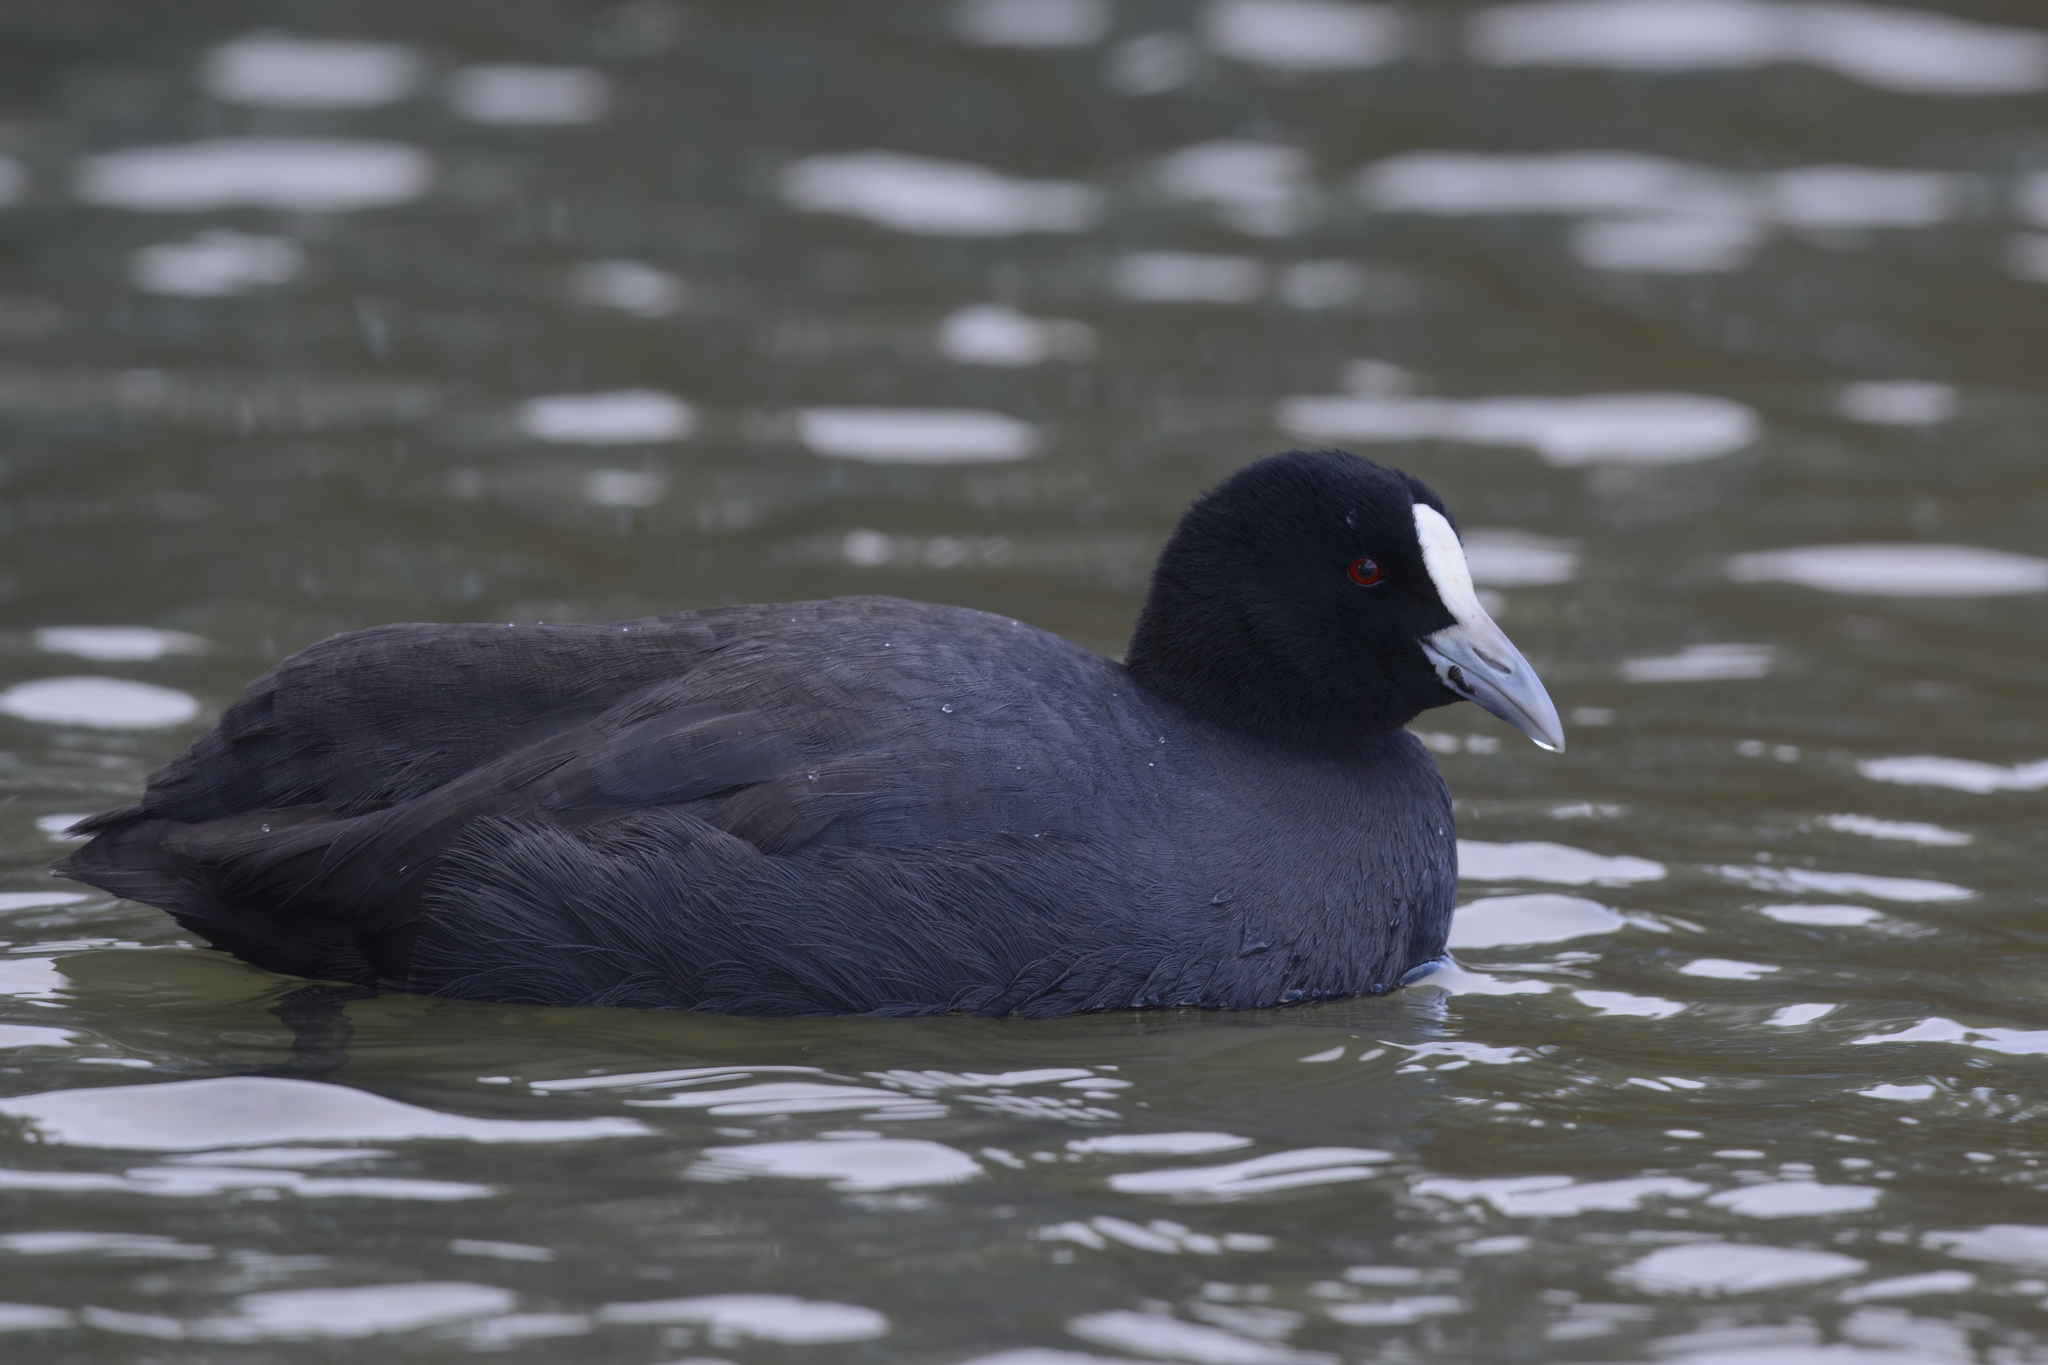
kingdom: Animalia
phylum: Chordata
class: Aves
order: Gruiformes
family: Rallidae
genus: Fulica
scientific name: Fulica atra
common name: Eurasian coot
